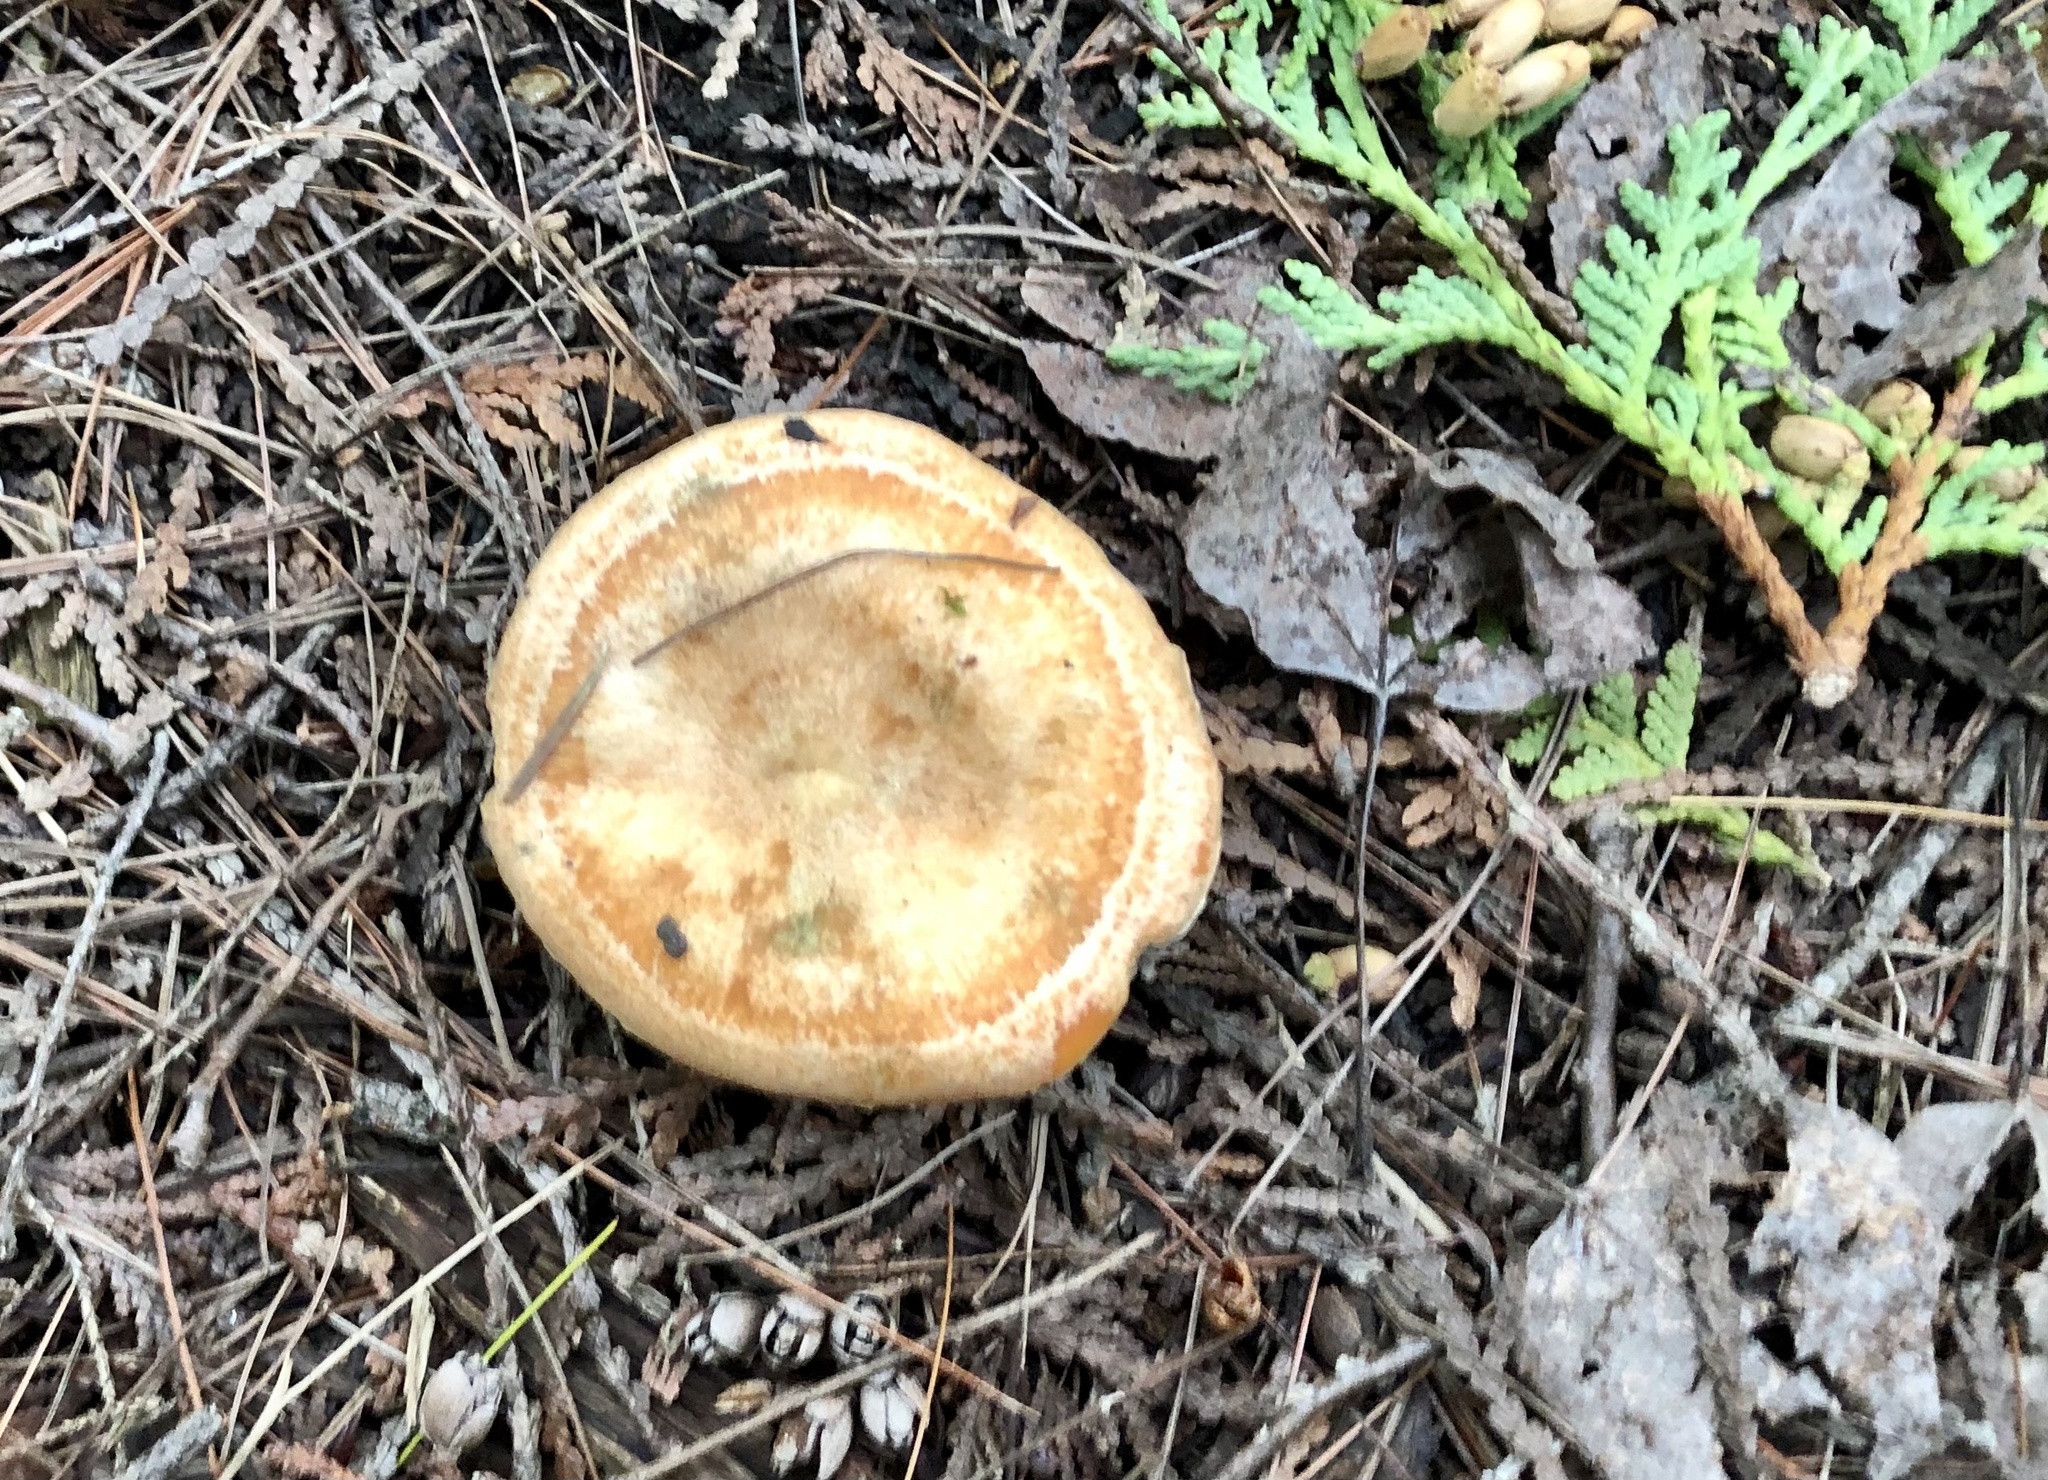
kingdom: Fungi
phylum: Basidiomycota
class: Agaricomycetes
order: Russulales
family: Russulaceae
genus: Lactarius
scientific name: Lactarius deterrimus
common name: False saffron milkcap
